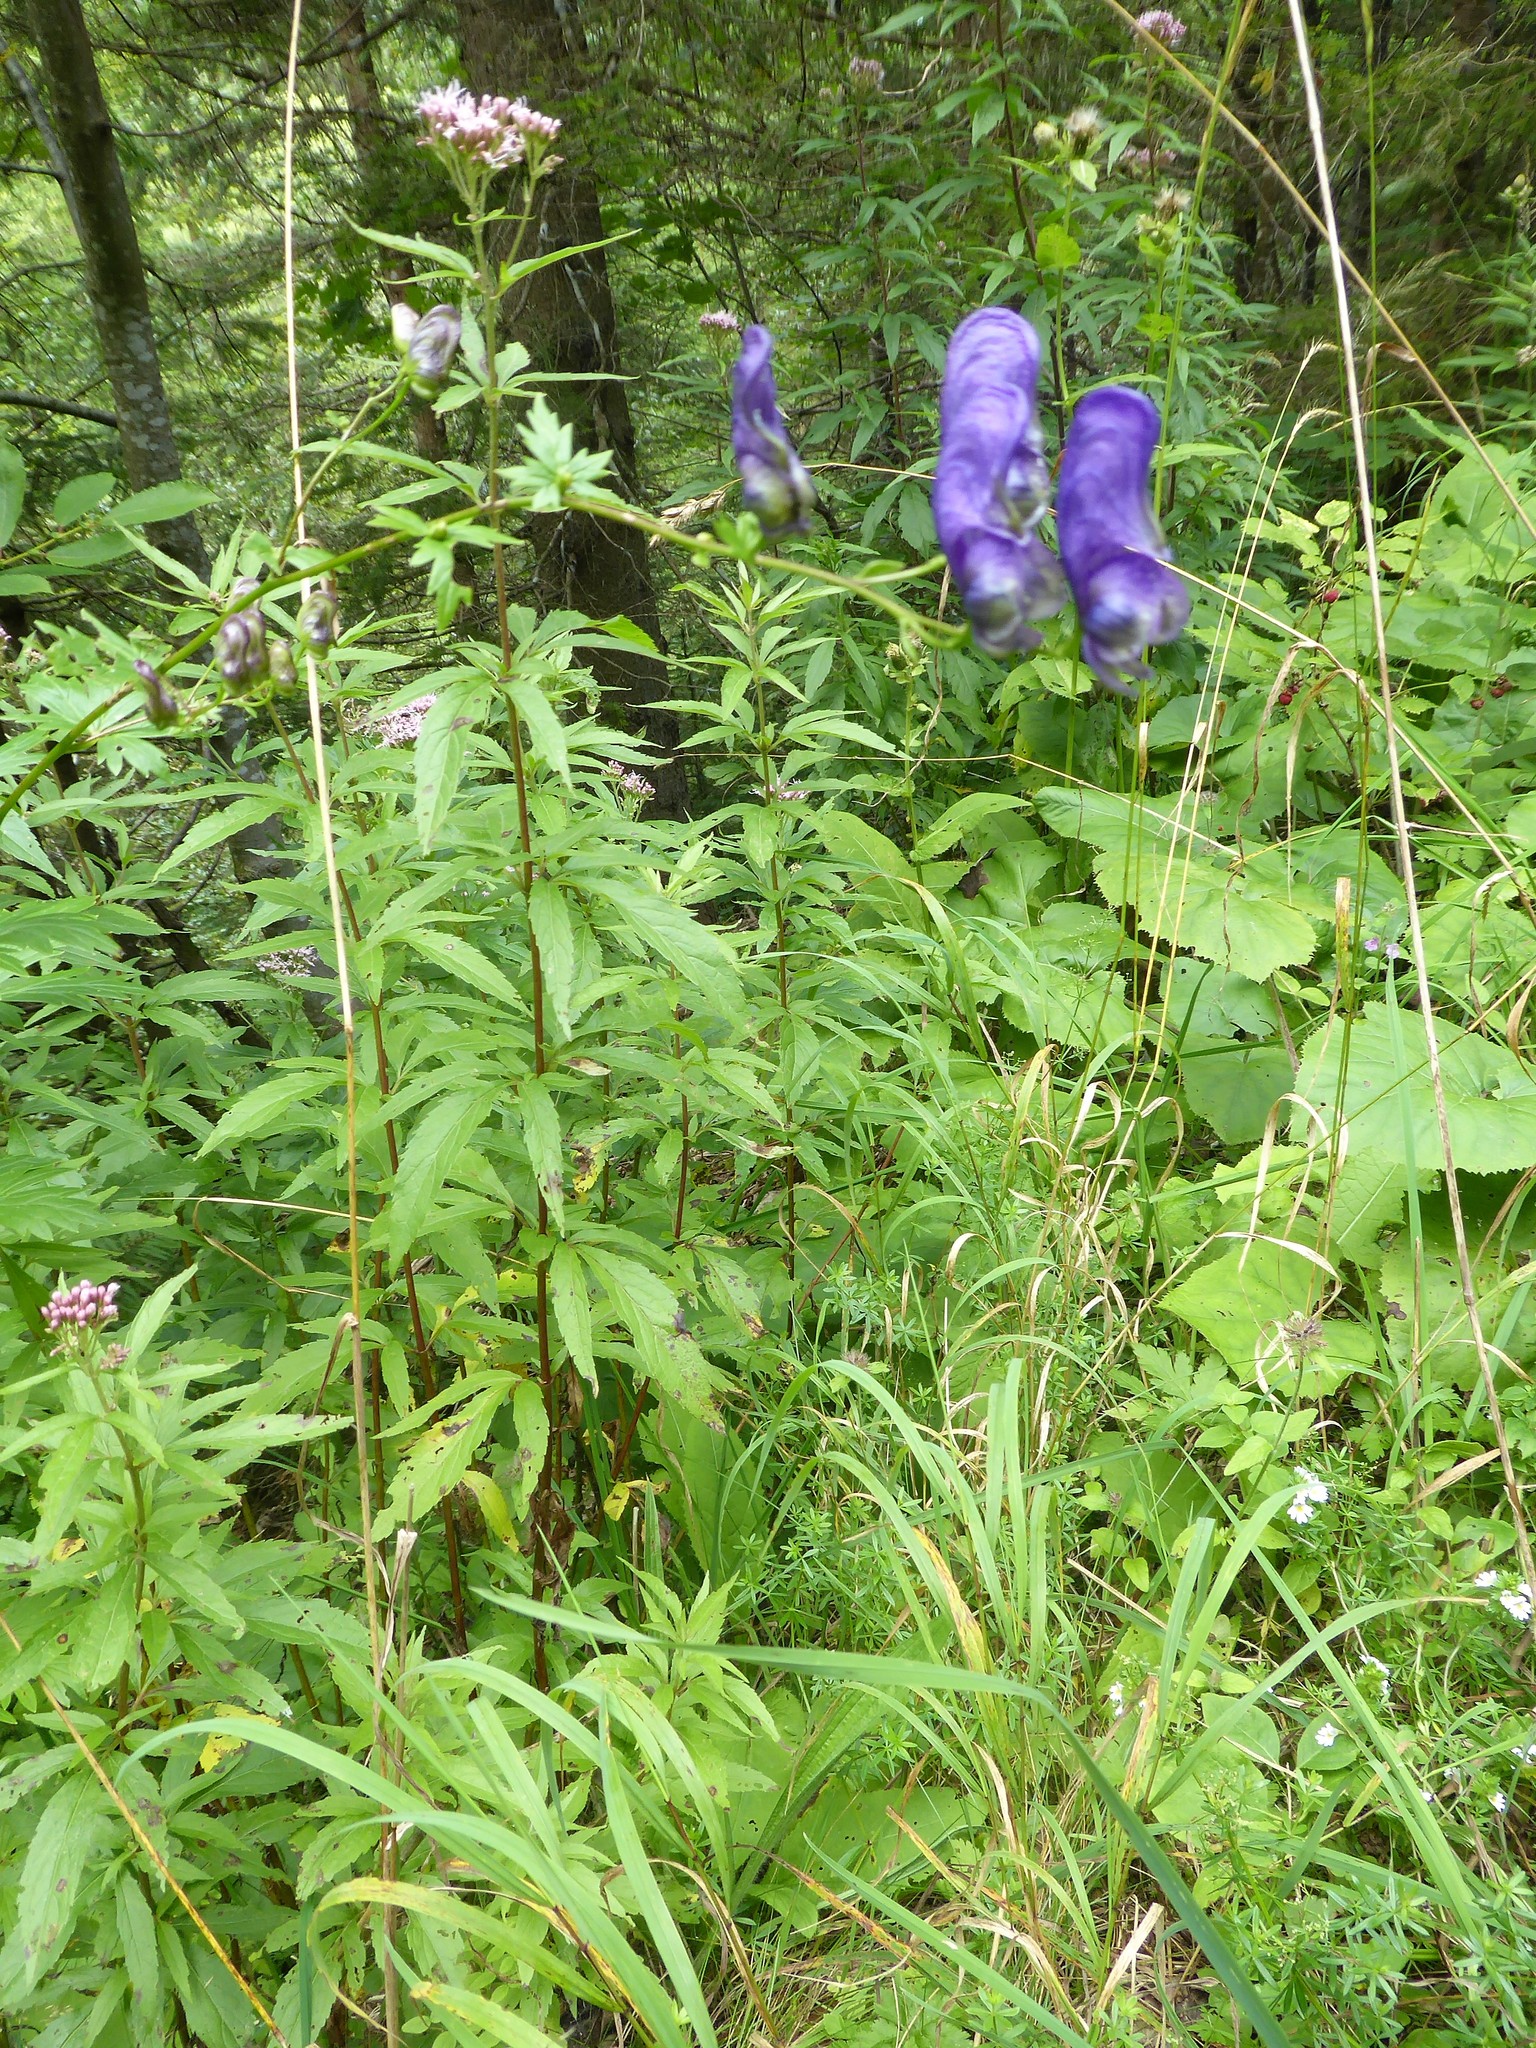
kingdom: Plantae
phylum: Tracheophyta
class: Magnoliopsida
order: Ranunculales
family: Ranunculaceae
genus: Aconitum
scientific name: Aconitum variegatum
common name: Manchurian monkshood
